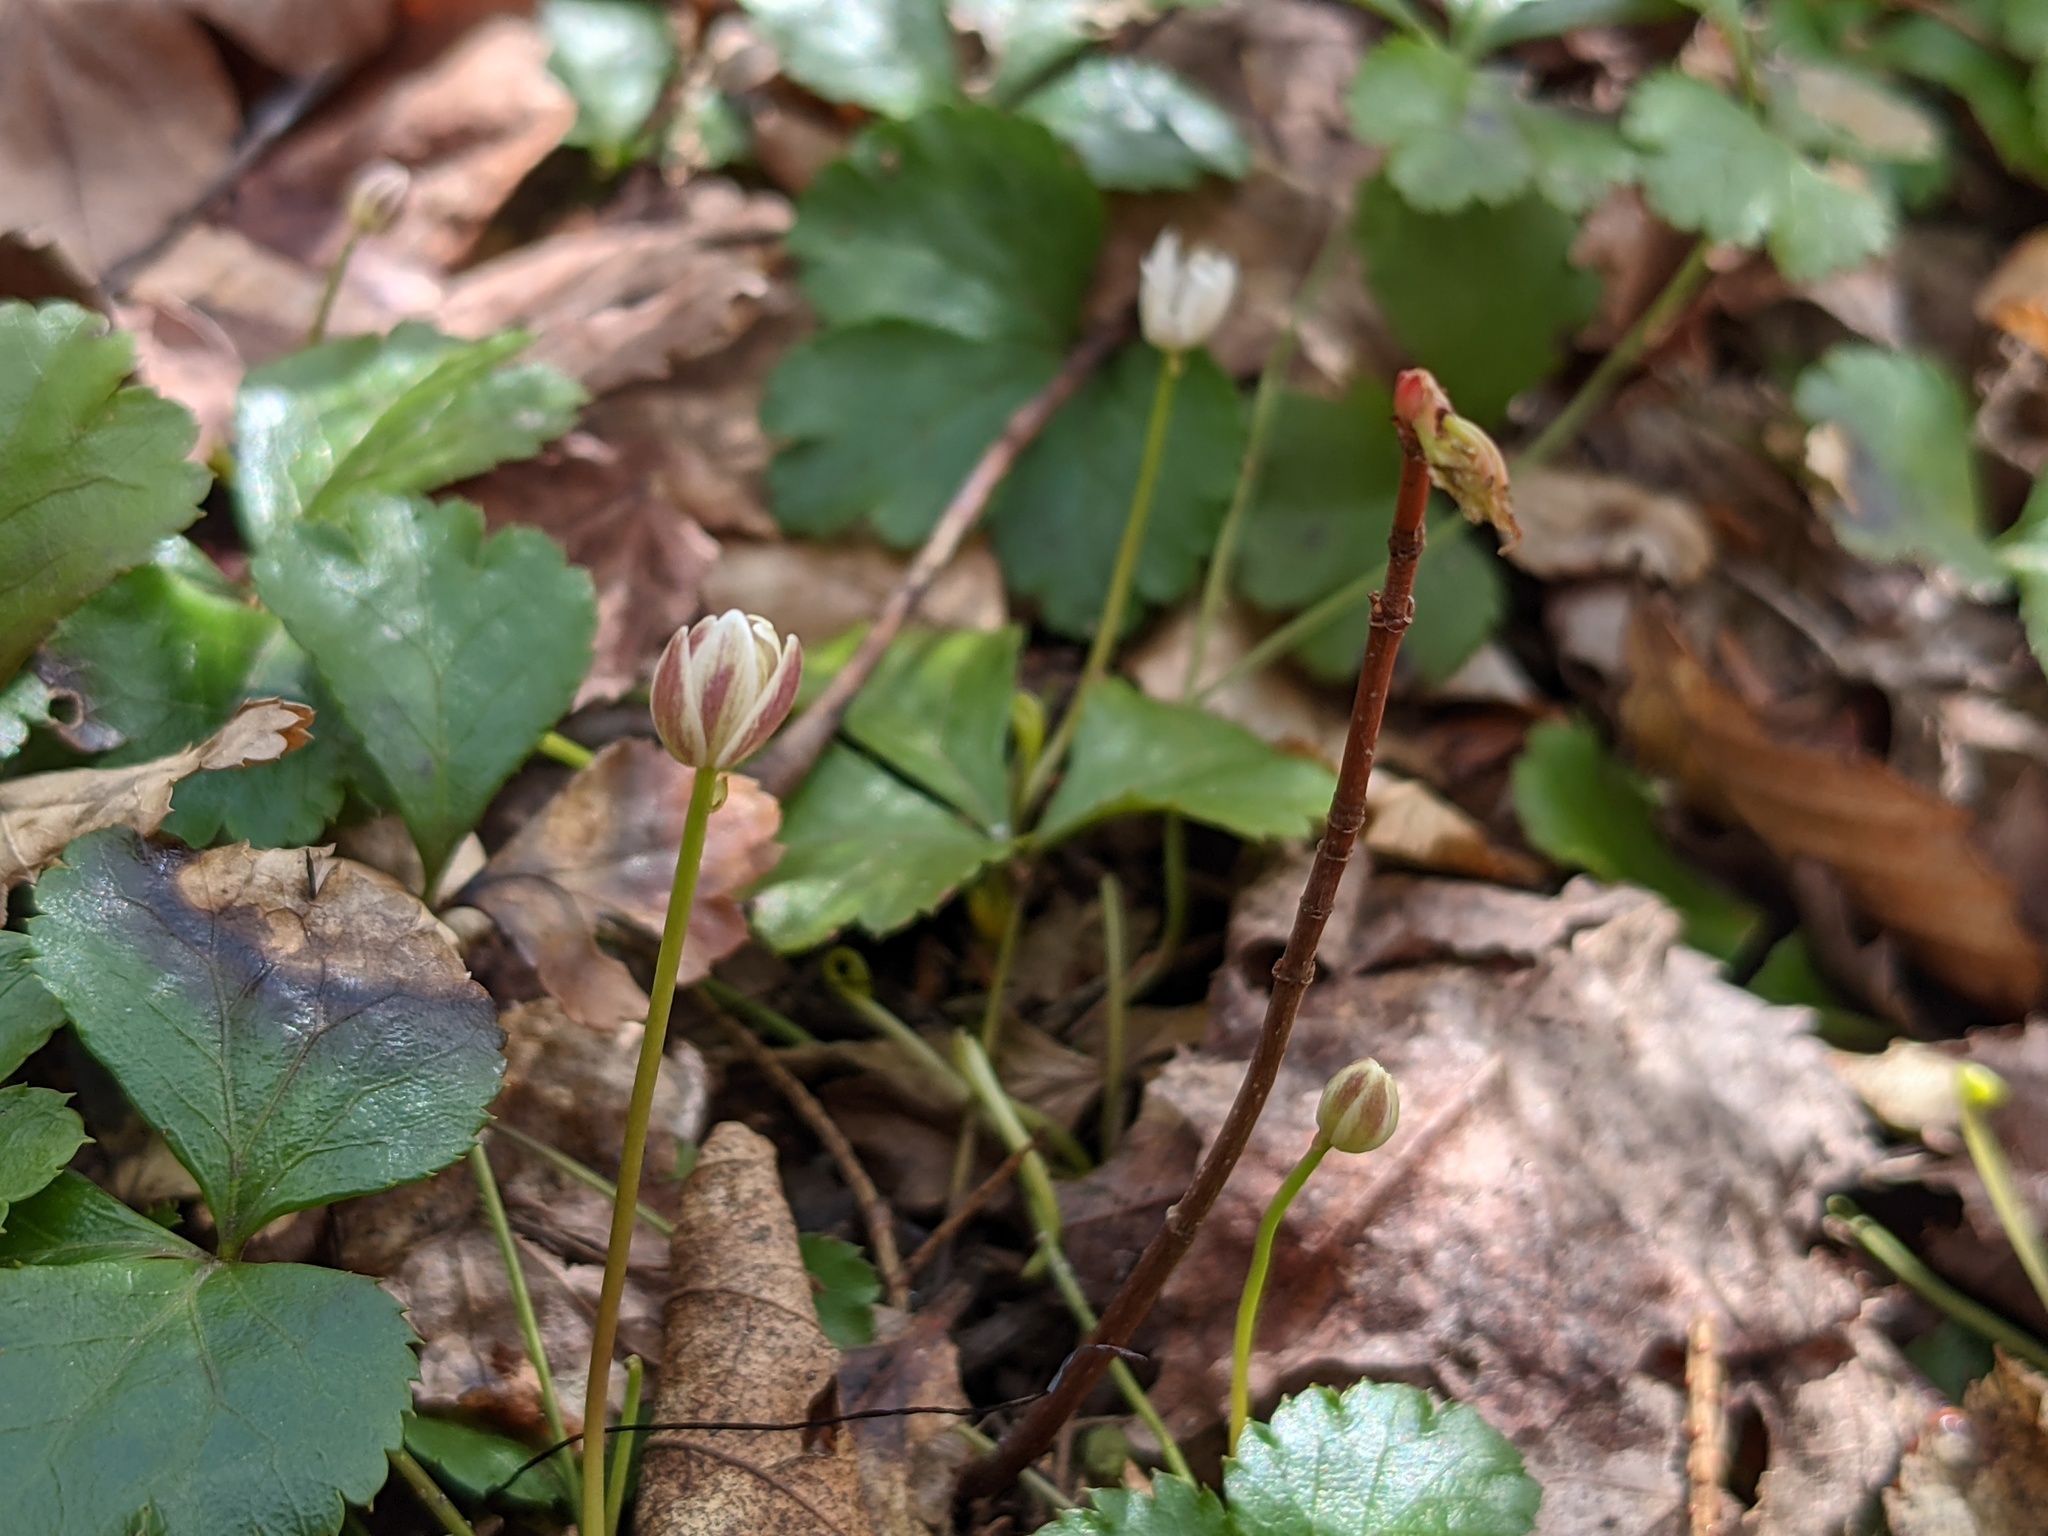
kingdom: Plantae
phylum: Tracheophyta
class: Magnoliopsida
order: Ranunculales
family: Ranunculaceae
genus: Coptis
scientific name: Coptis trifolia
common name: Canker-root
